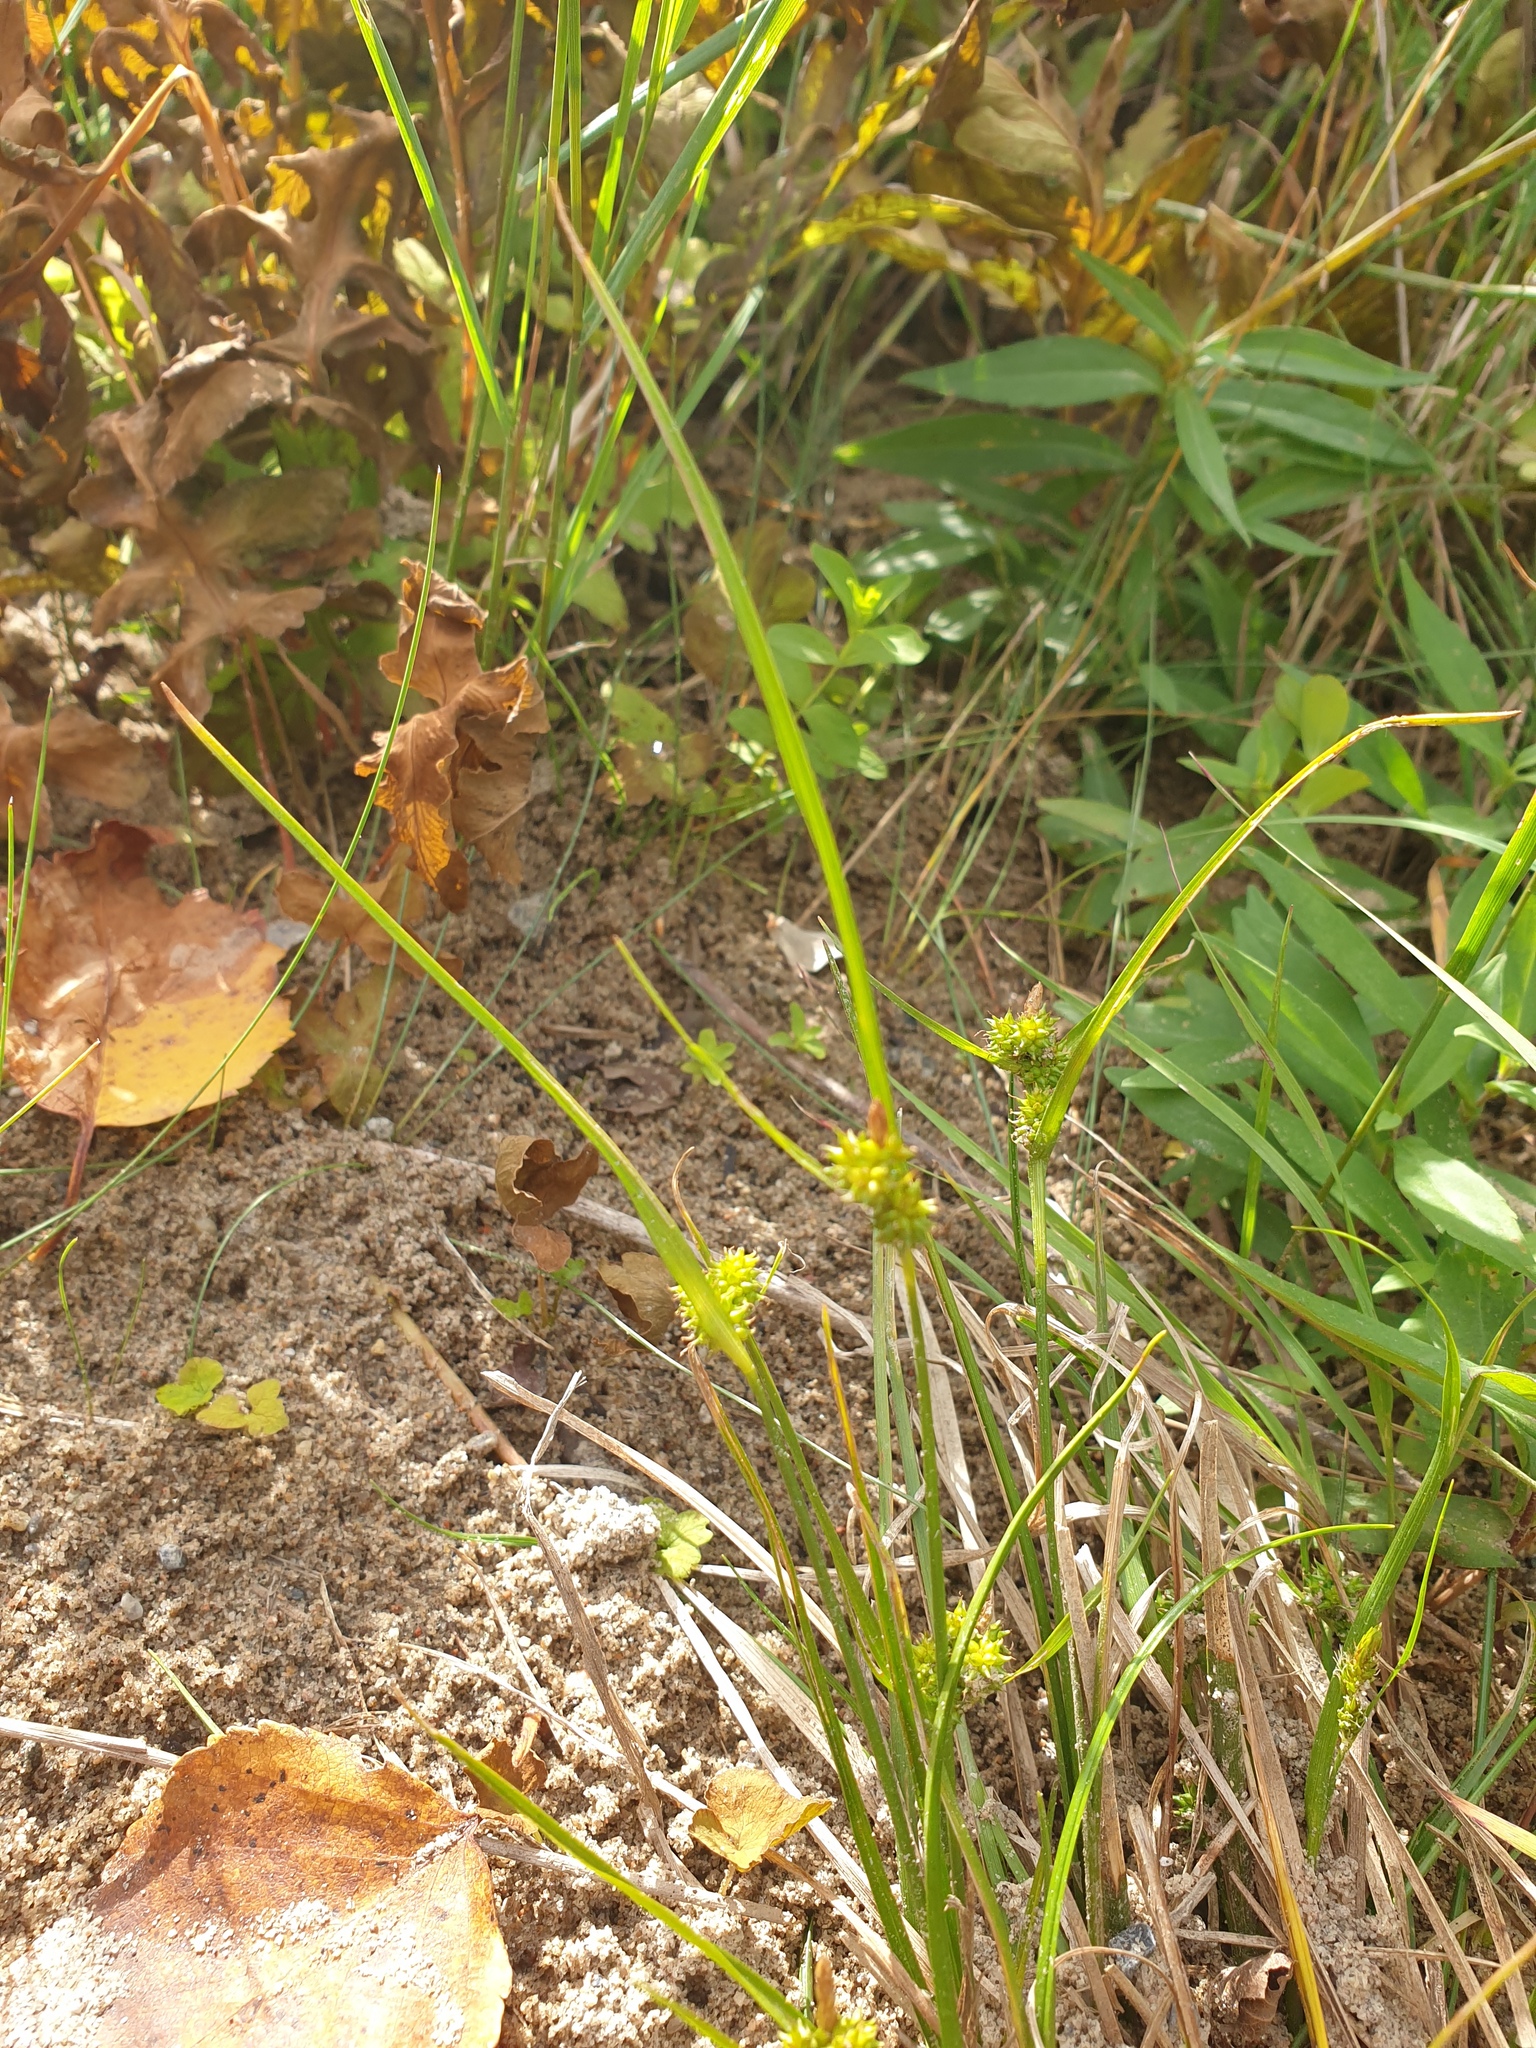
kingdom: Plantae
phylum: Tracheophyta
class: Liliopsida
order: Poales
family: Cyperaceae
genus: Carex
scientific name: Carex
